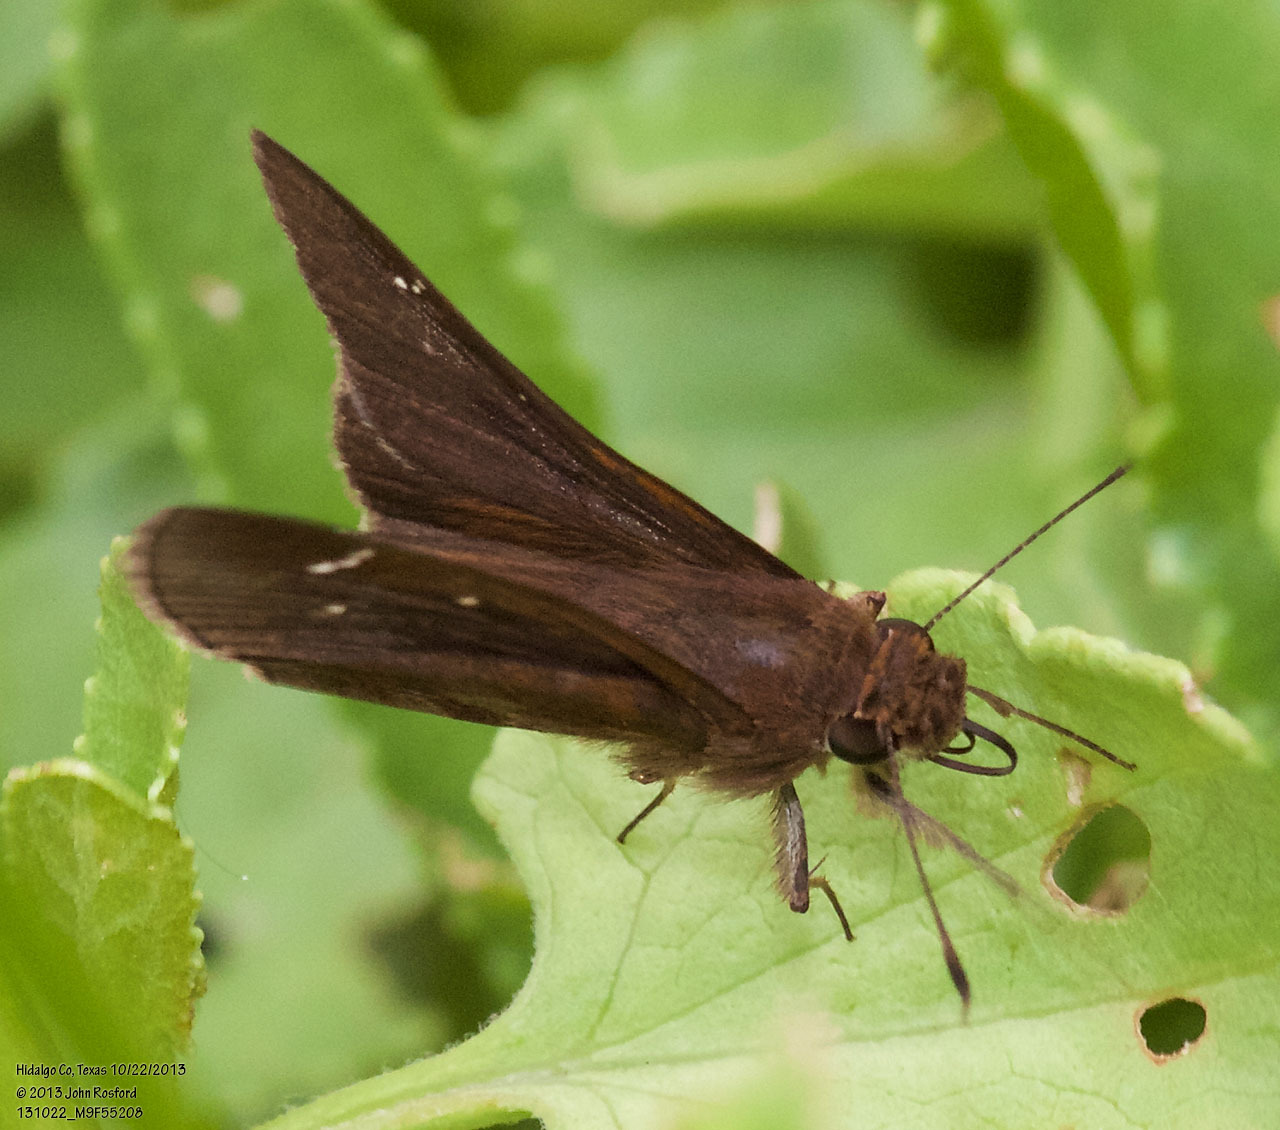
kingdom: Animalia
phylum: Arthropoda
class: Insecta
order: Lepidoptera
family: Hesperiidae
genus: Lerema
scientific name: Lerema accius
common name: Clouded skipper
